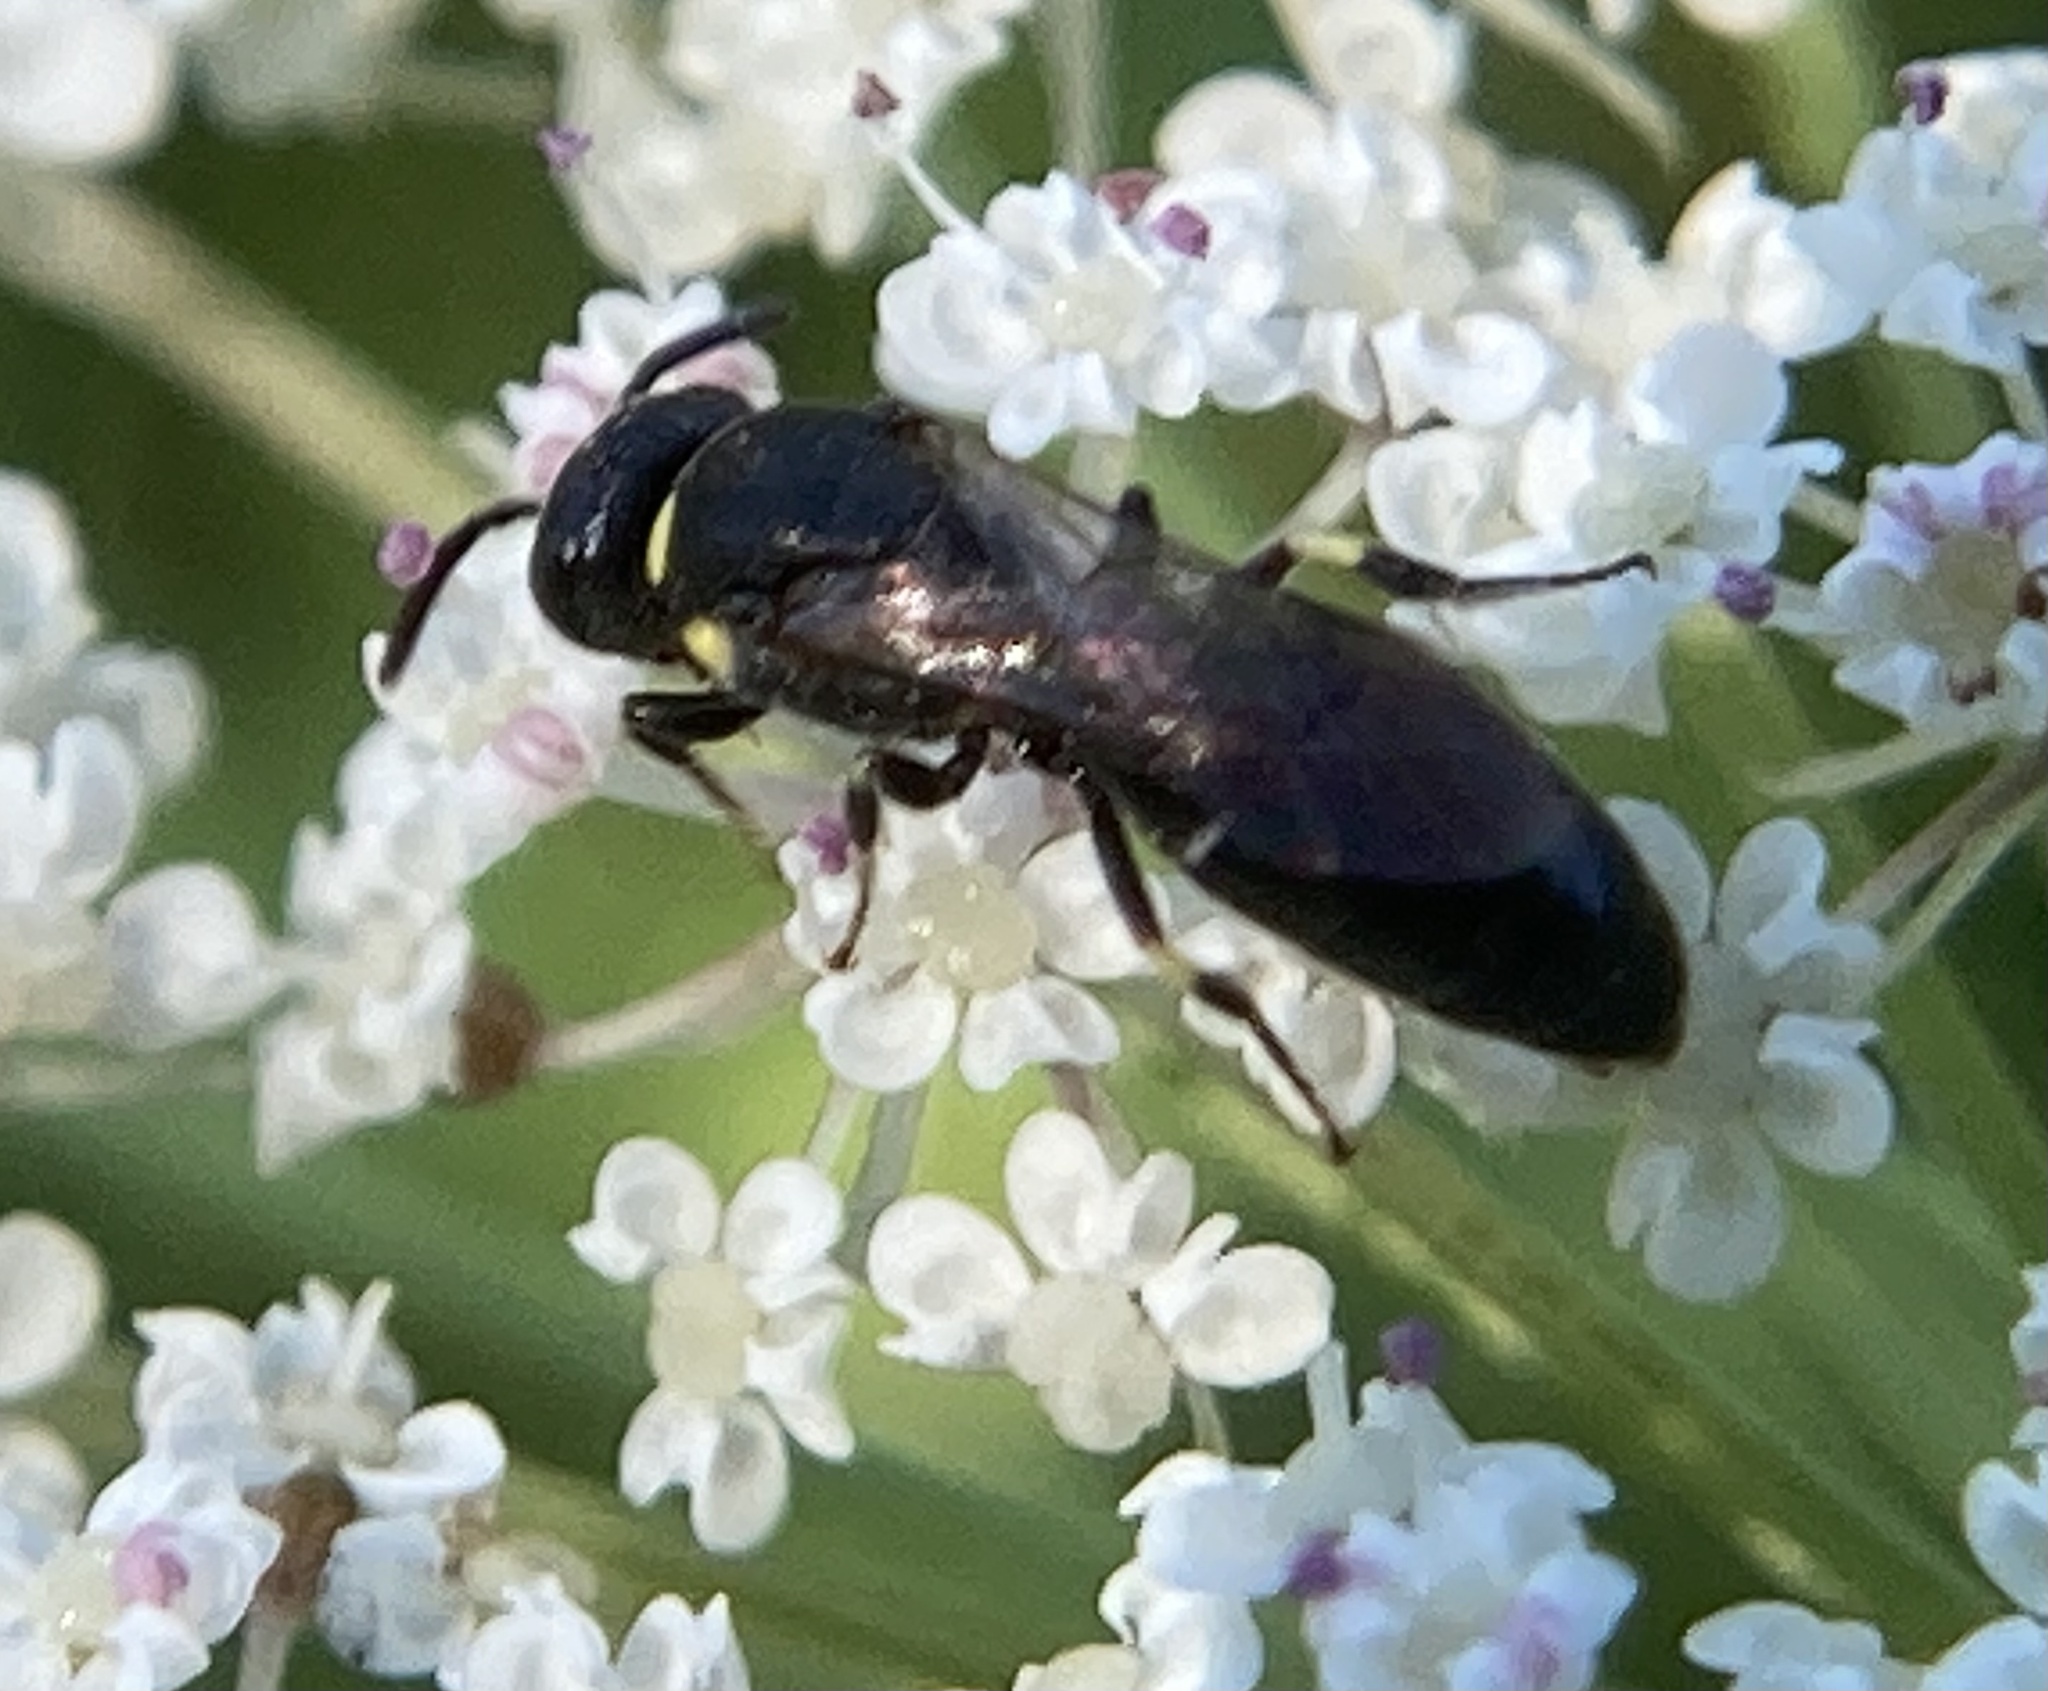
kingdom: Animalia
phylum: Arthropoda
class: Insecta
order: Hymenoptera
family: Colletidae
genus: Hylaeus
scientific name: Hylaeus modestus
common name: Yellow-faced bee
